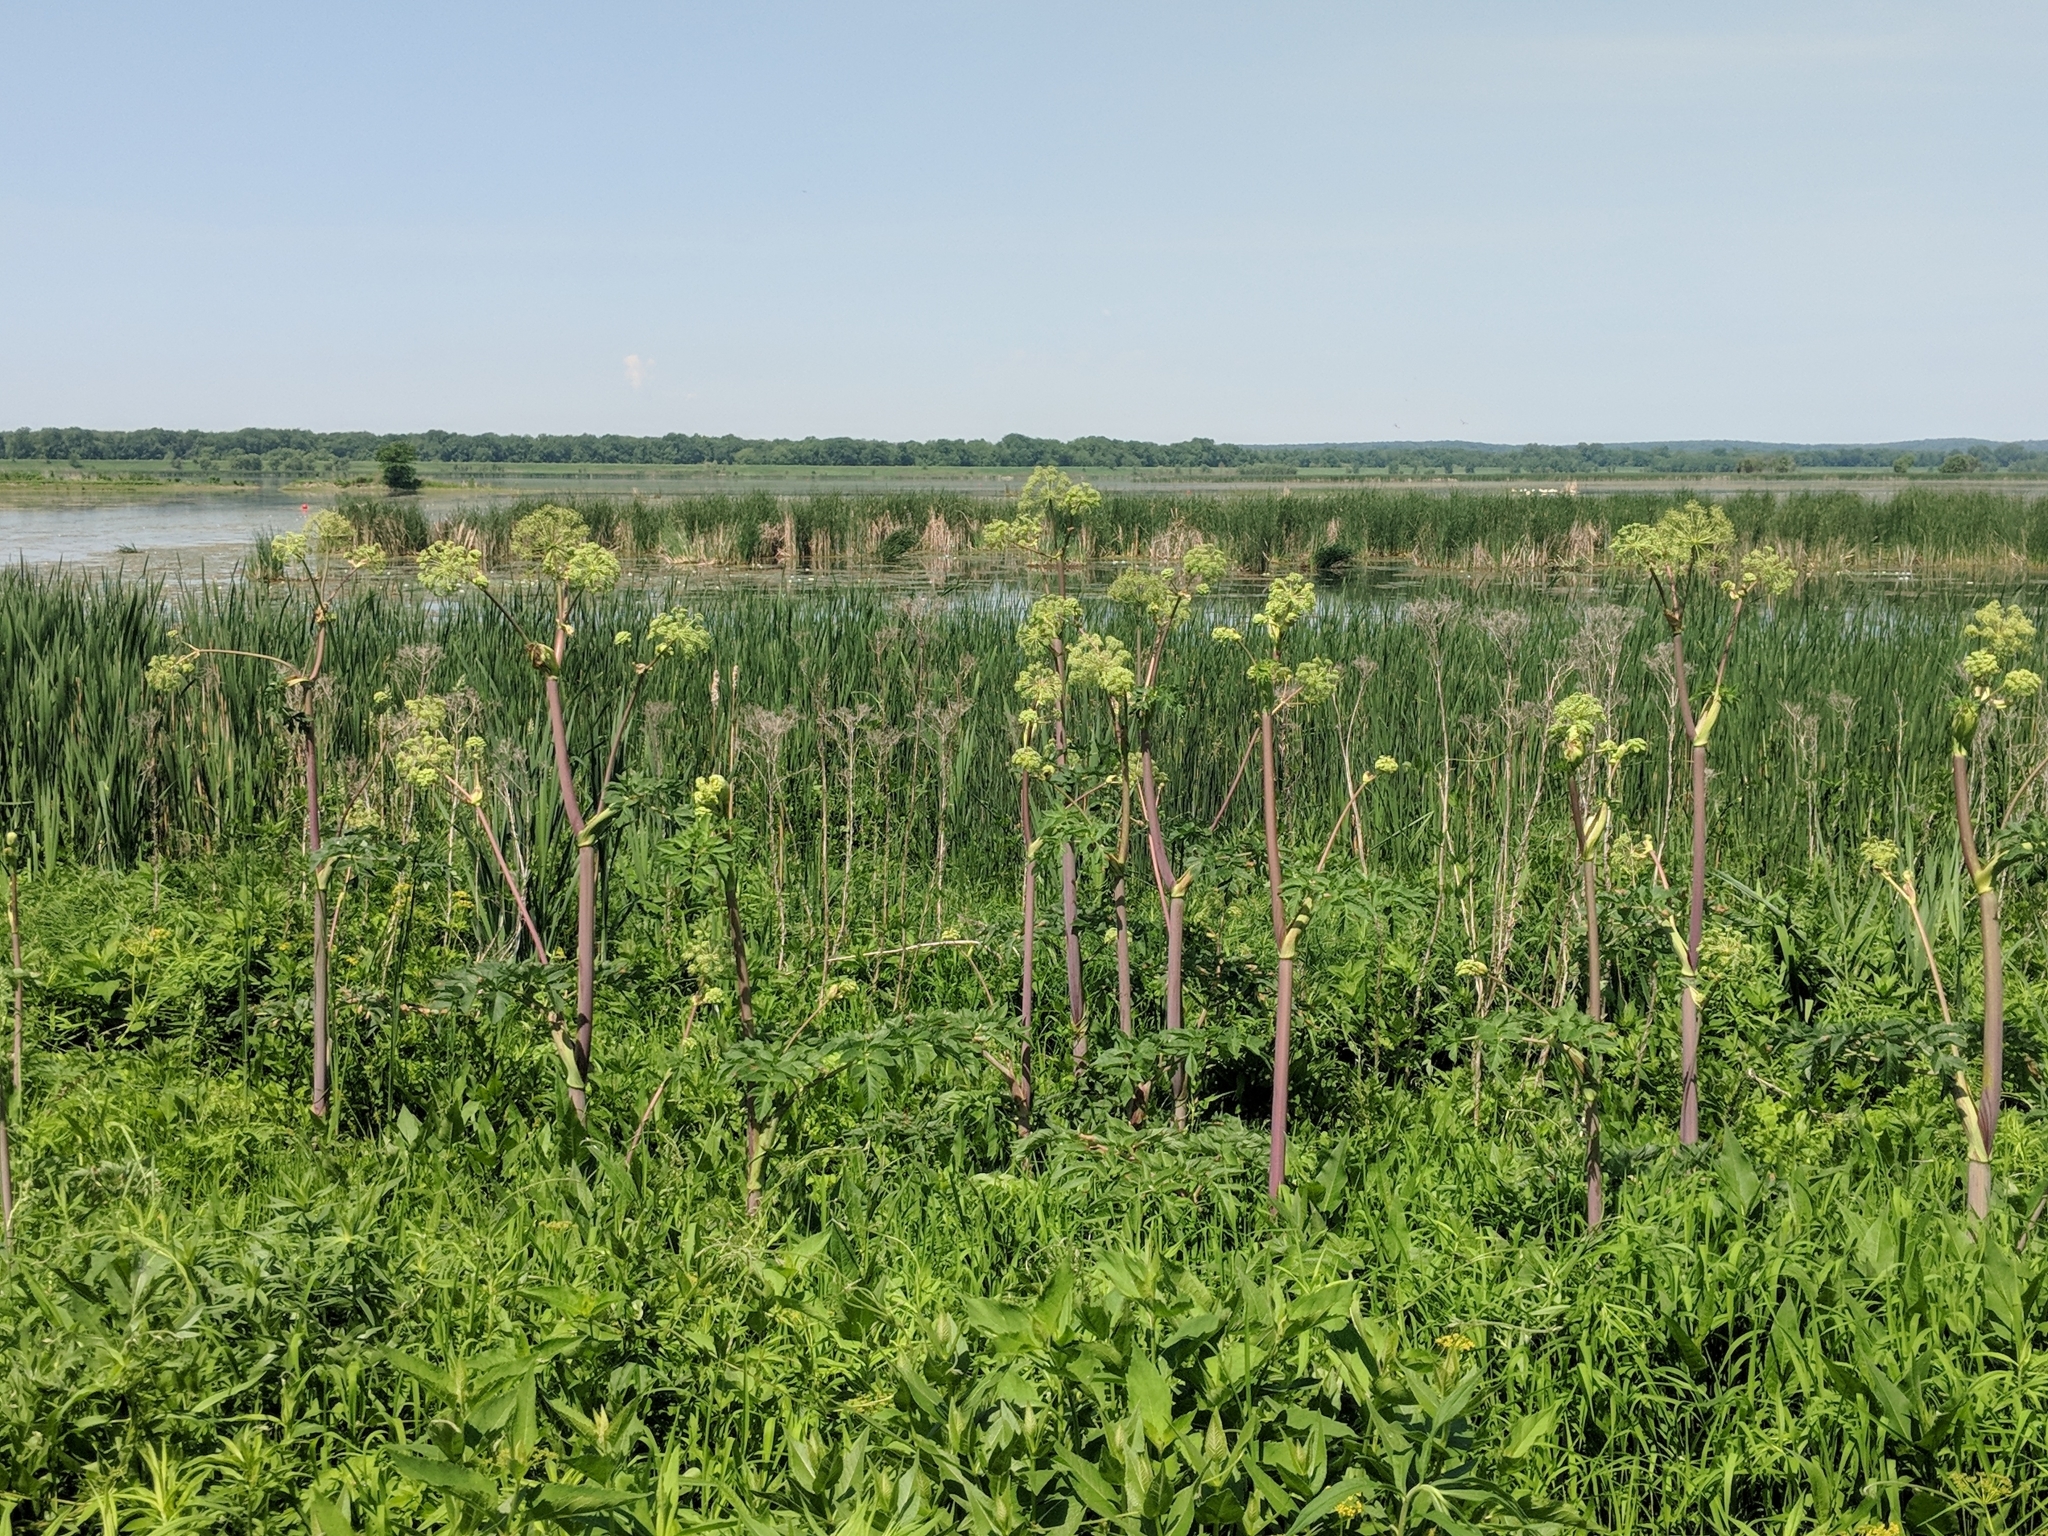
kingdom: Plantae
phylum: Tracheophyta
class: Magnoliopsida
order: Apiales
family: Apiaceae
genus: Angelica
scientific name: Angelica atropurpurea
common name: Great angelica
